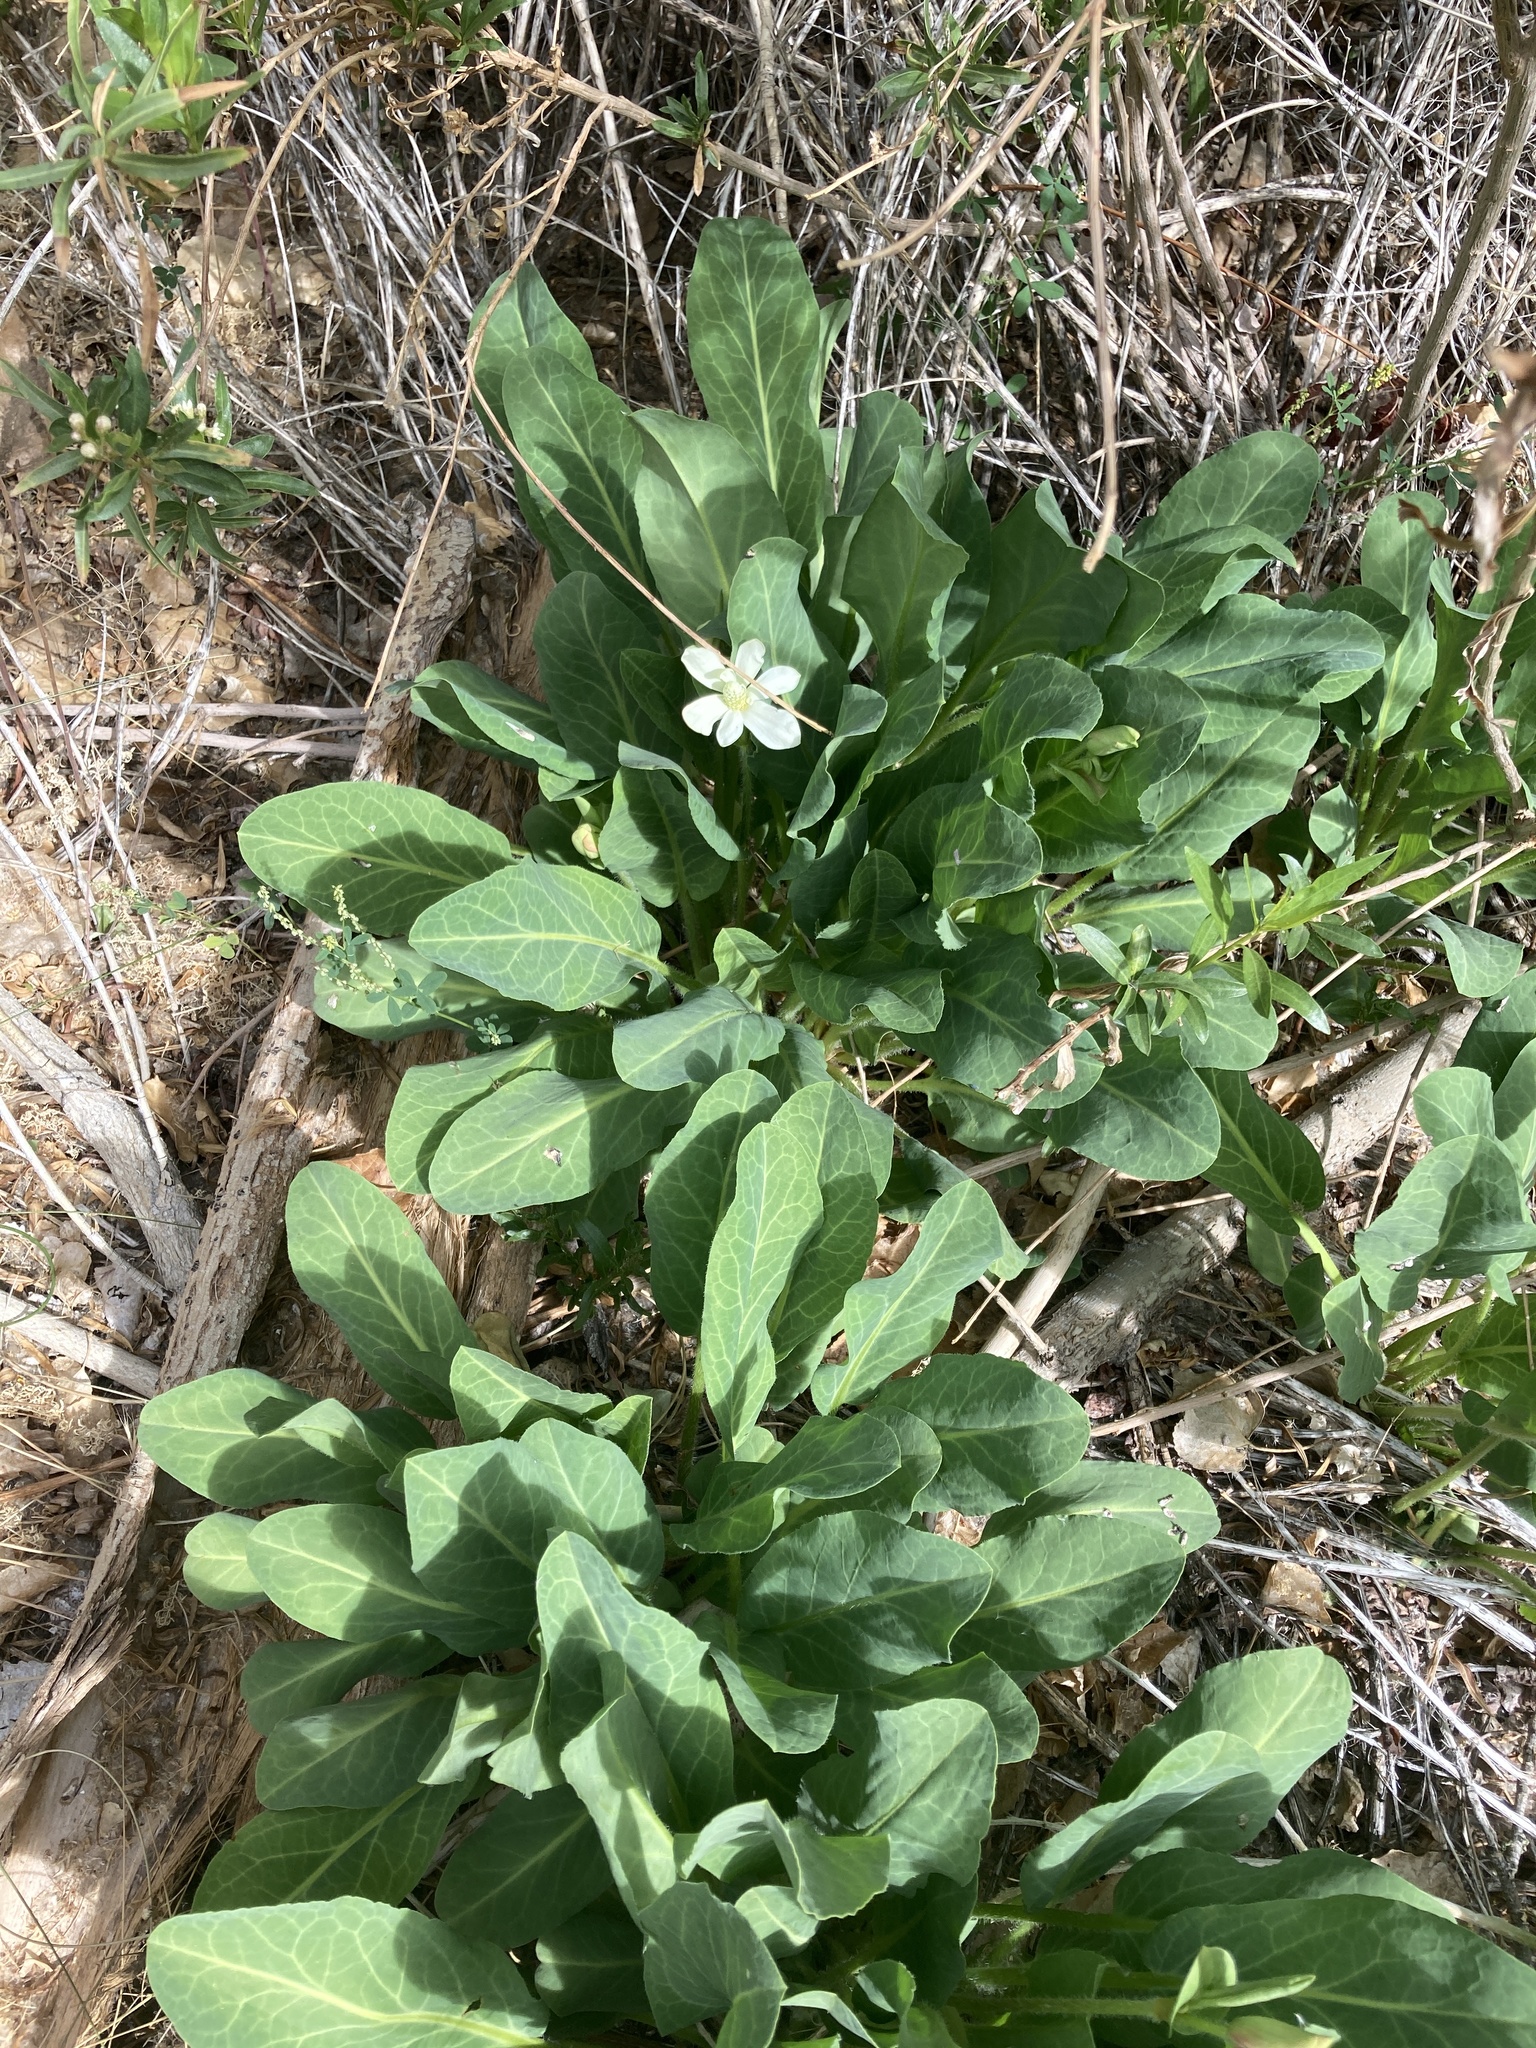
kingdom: Plantae
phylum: Tracheophyta
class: Magnoliopsida
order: Piperales
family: Saururaceae
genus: Anemopsis
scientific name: Anemopsis californica
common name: Apache-beads
